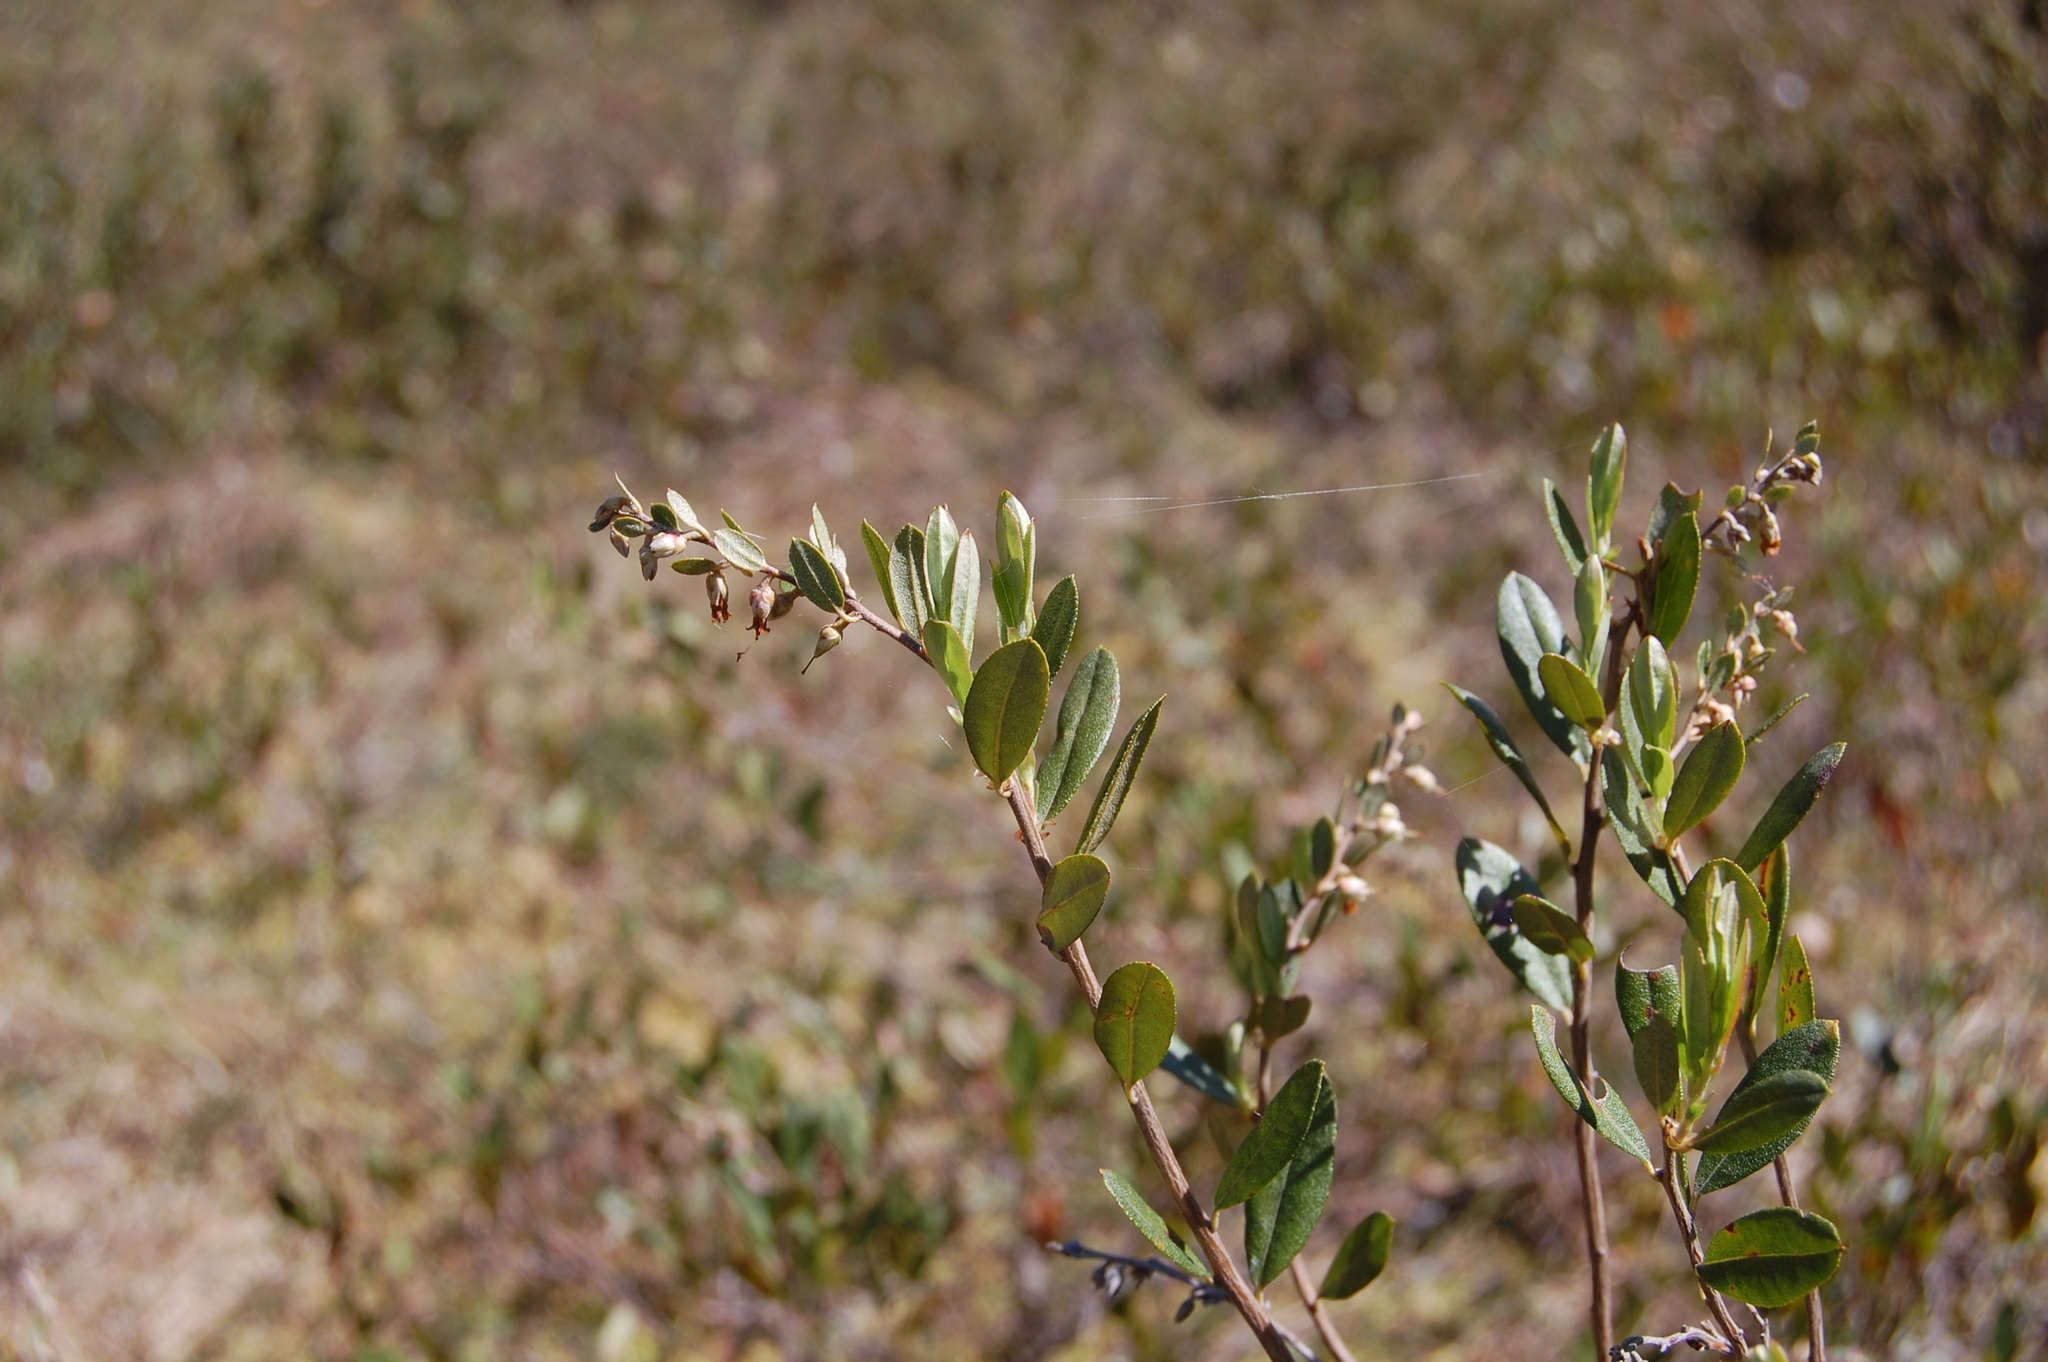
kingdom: Plantae
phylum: Tracheophyta
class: Magnoliopsida
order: Ericales
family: Ericaceae
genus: Chamaedaphne
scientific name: Chamaedaphne calyculata
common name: Leatherleaf
